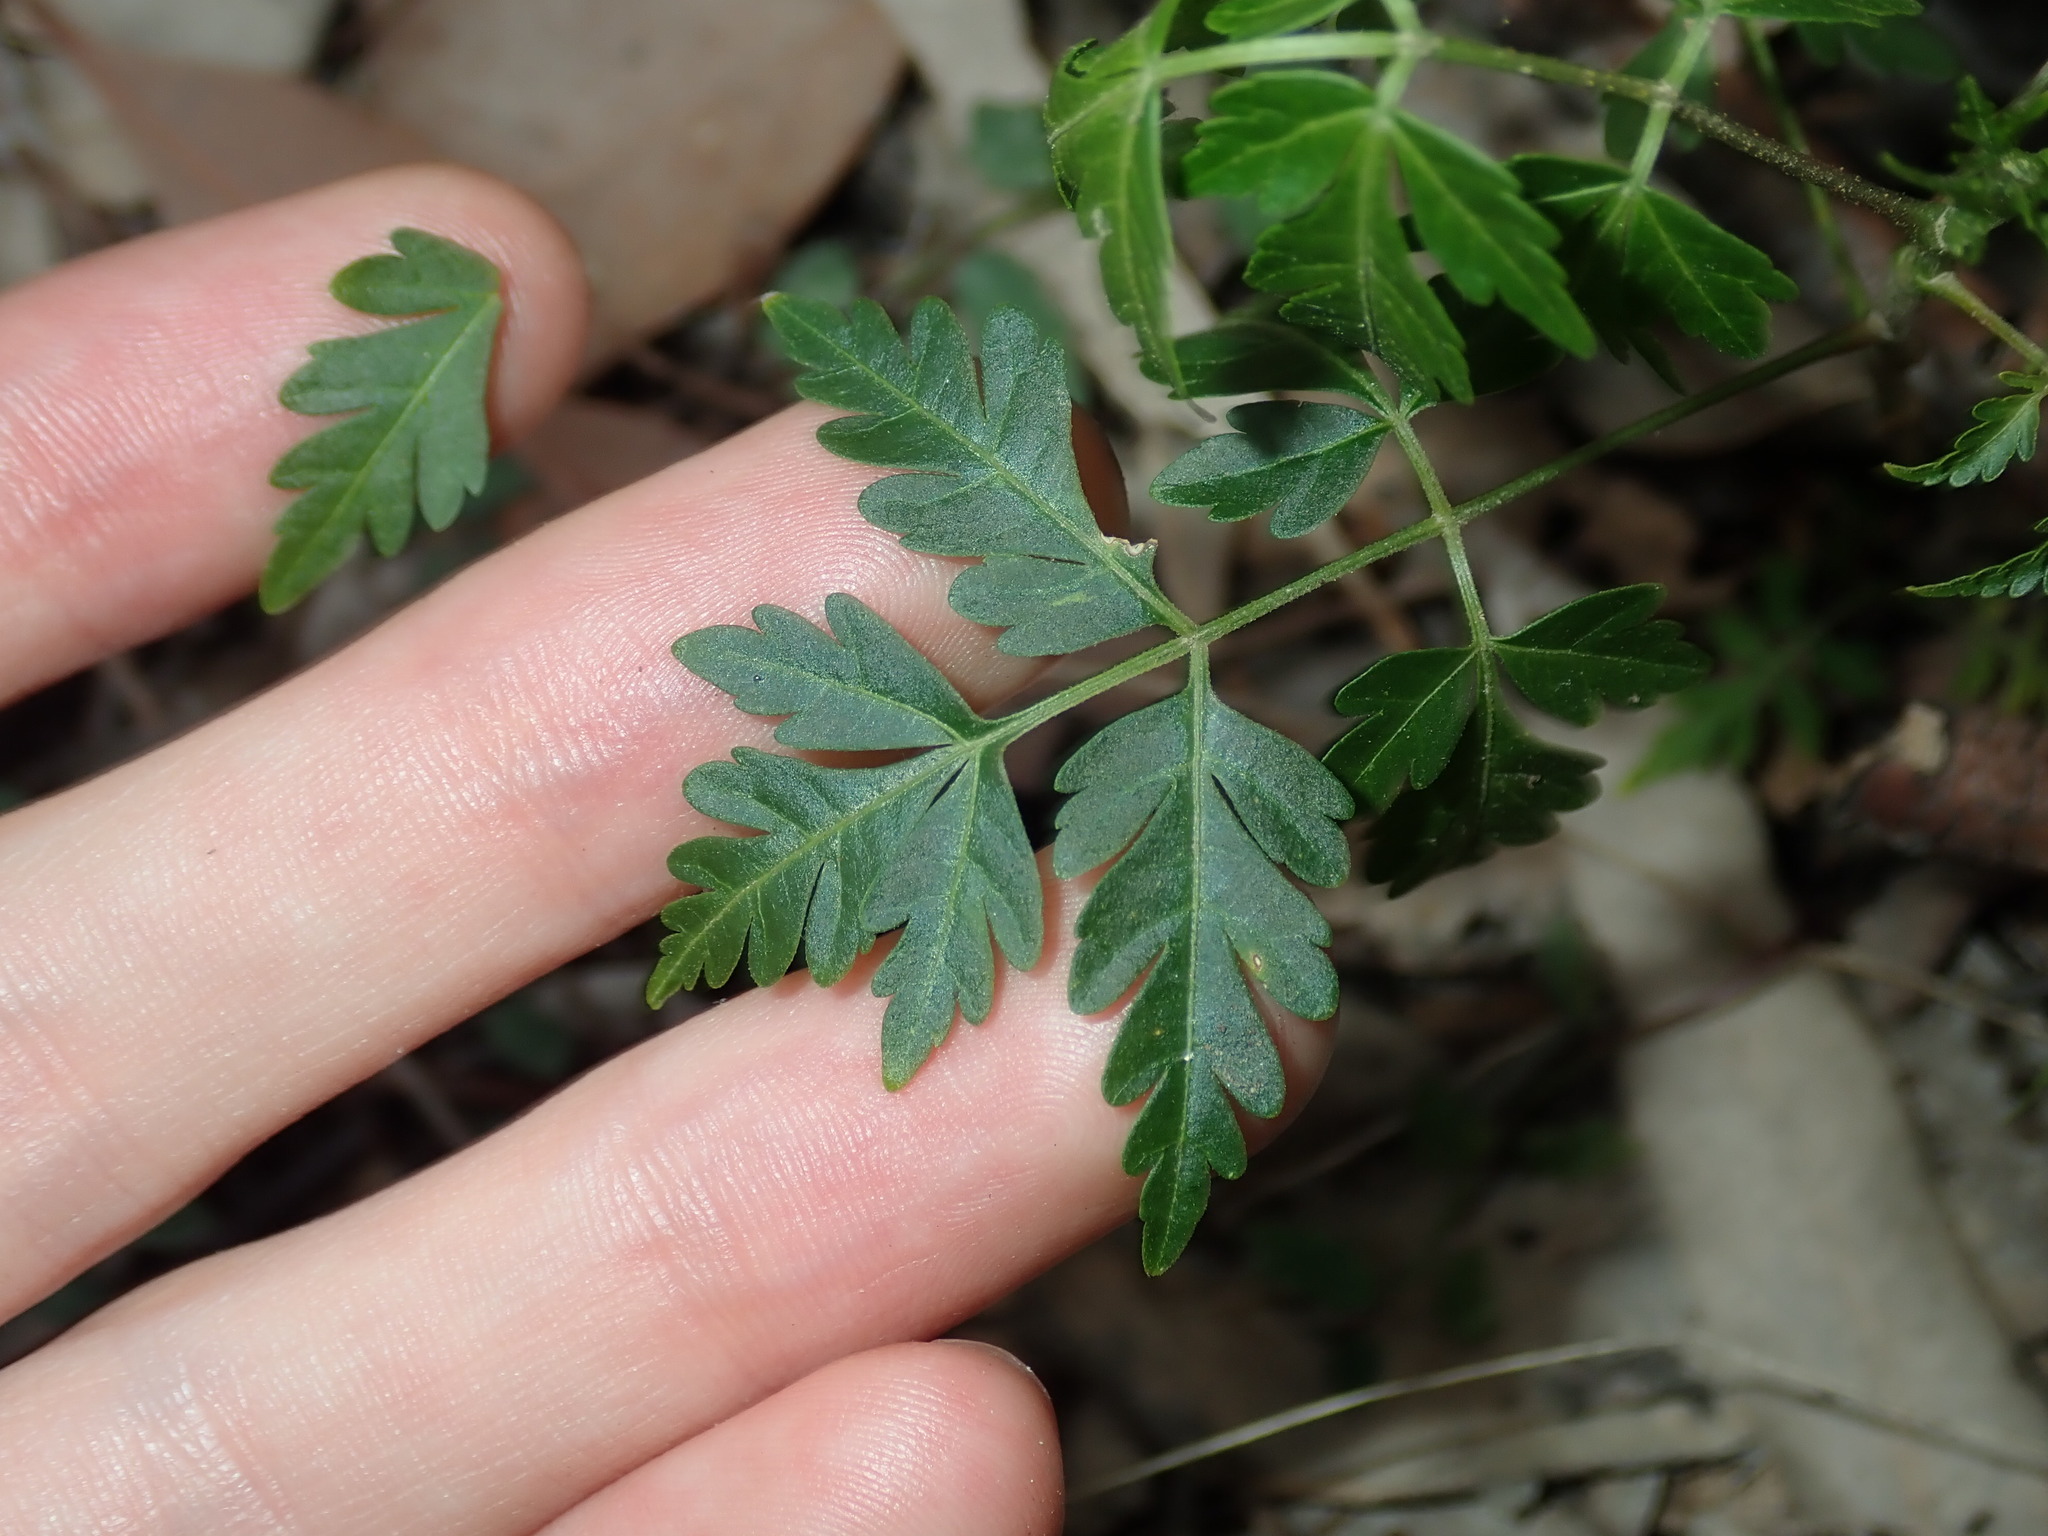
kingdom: Plantae
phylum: Tracheophyta
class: Magnoliopsida
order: Sapindales
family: Meliaceae
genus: Melia
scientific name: Melia azedarach
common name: Chinaberrytree
